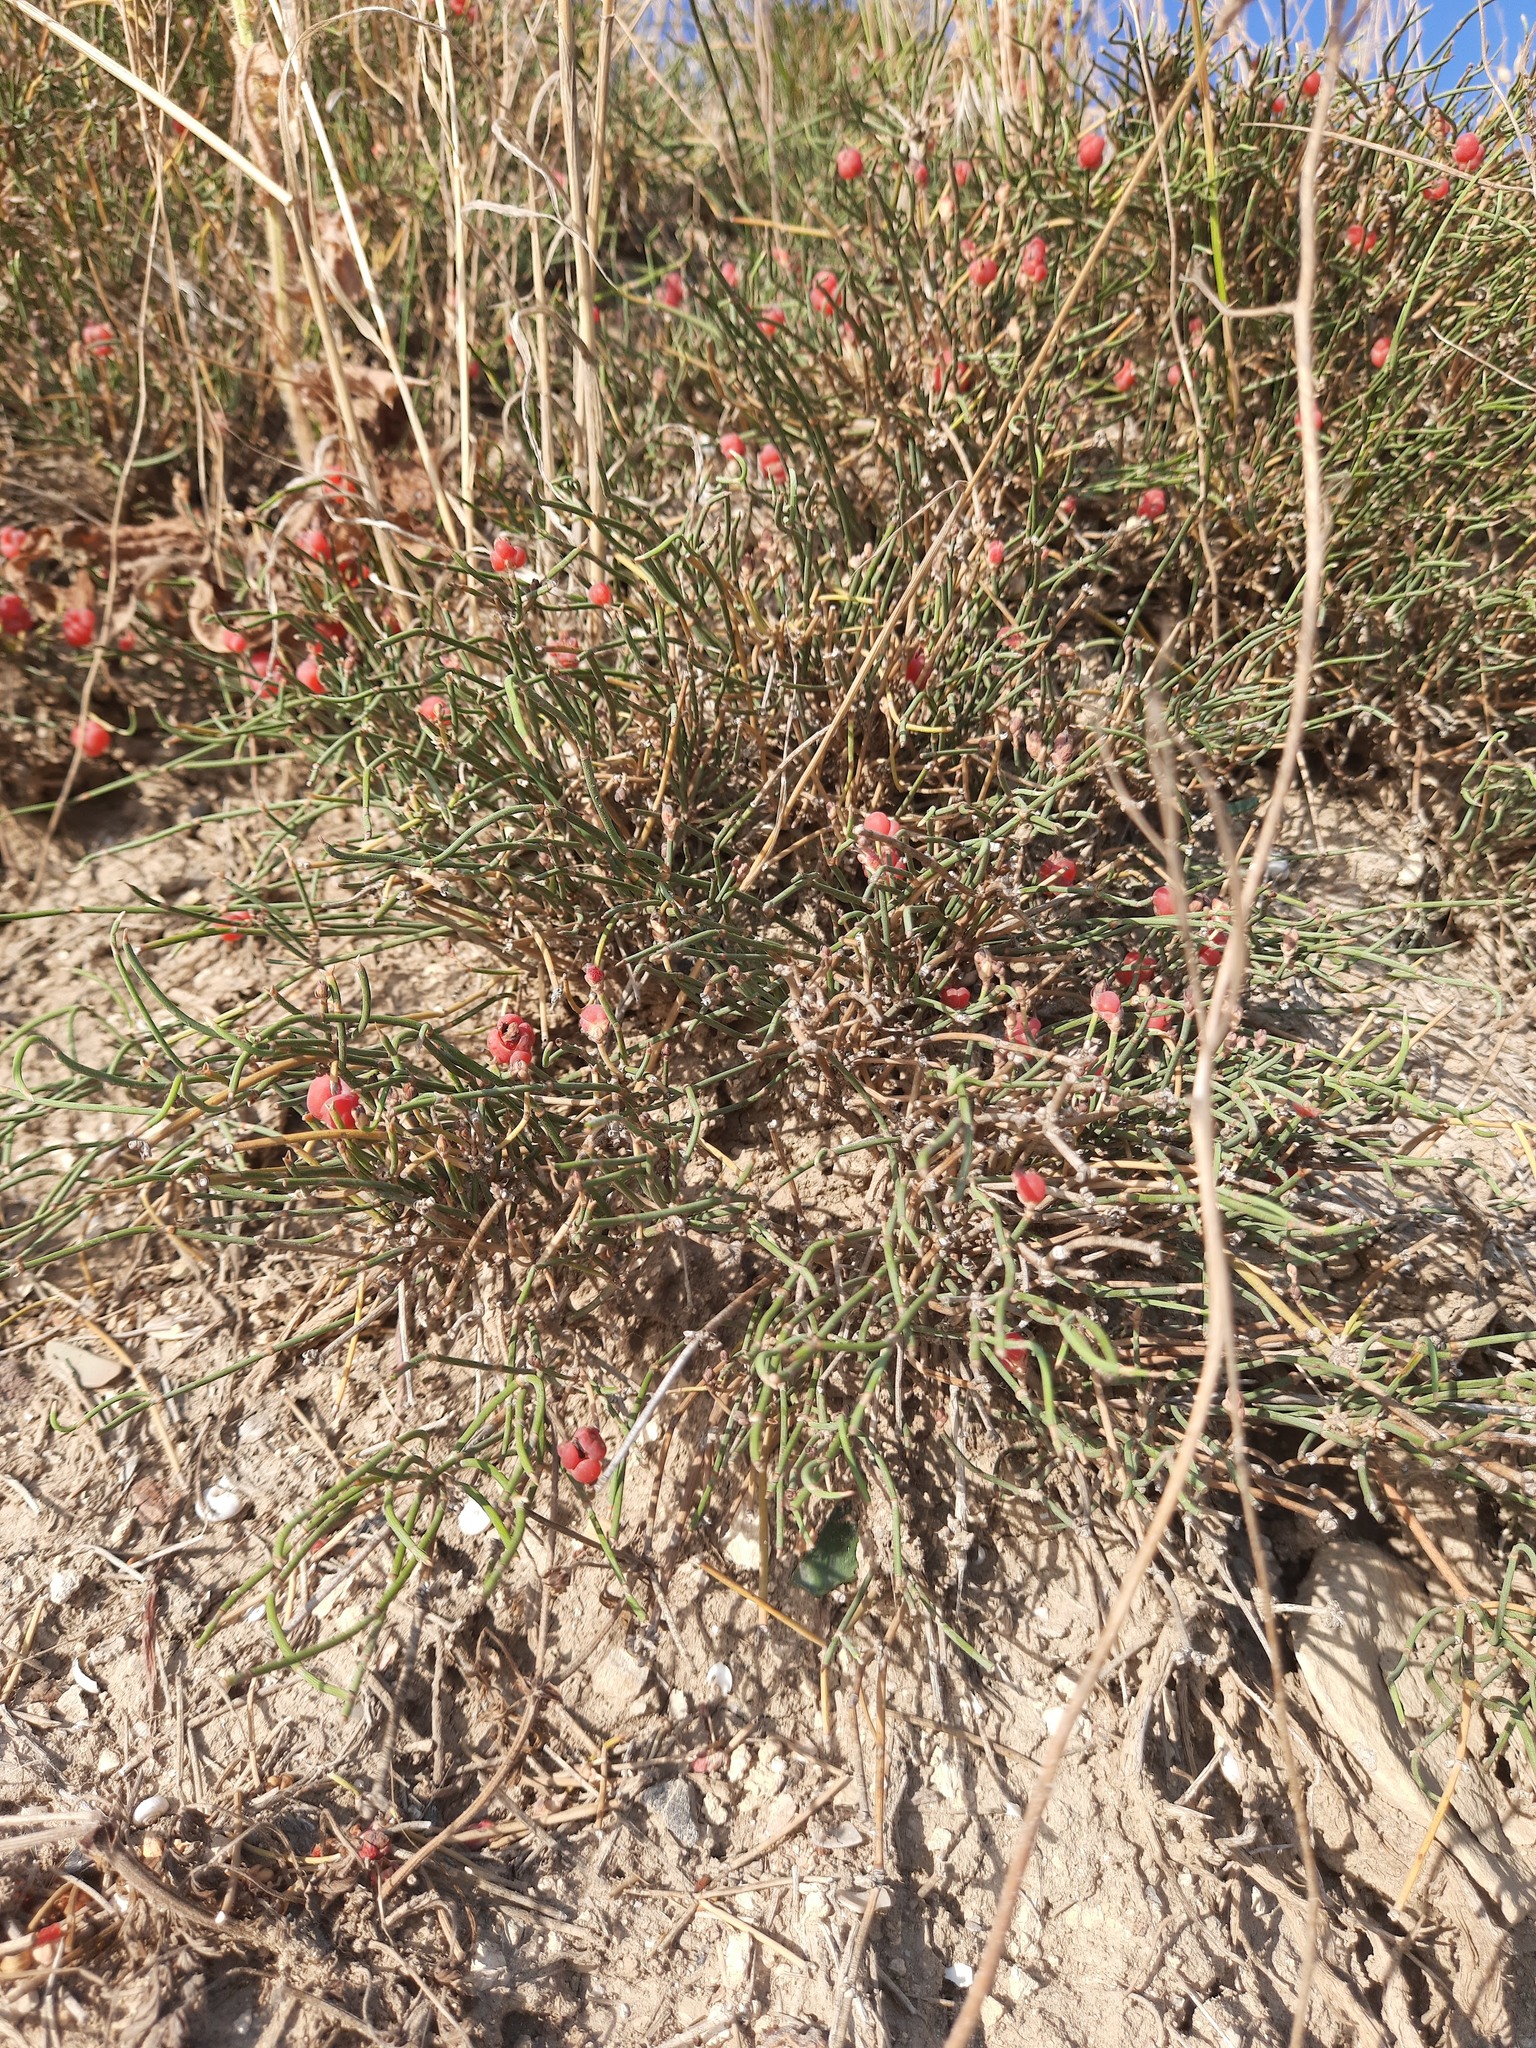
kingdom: Plantae
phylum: Tracheophyta
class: Gnetopsida
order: Ephedrales
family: Ephedraceae
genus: Ephedra
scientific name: Ephedra distachya
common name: Sea grape
